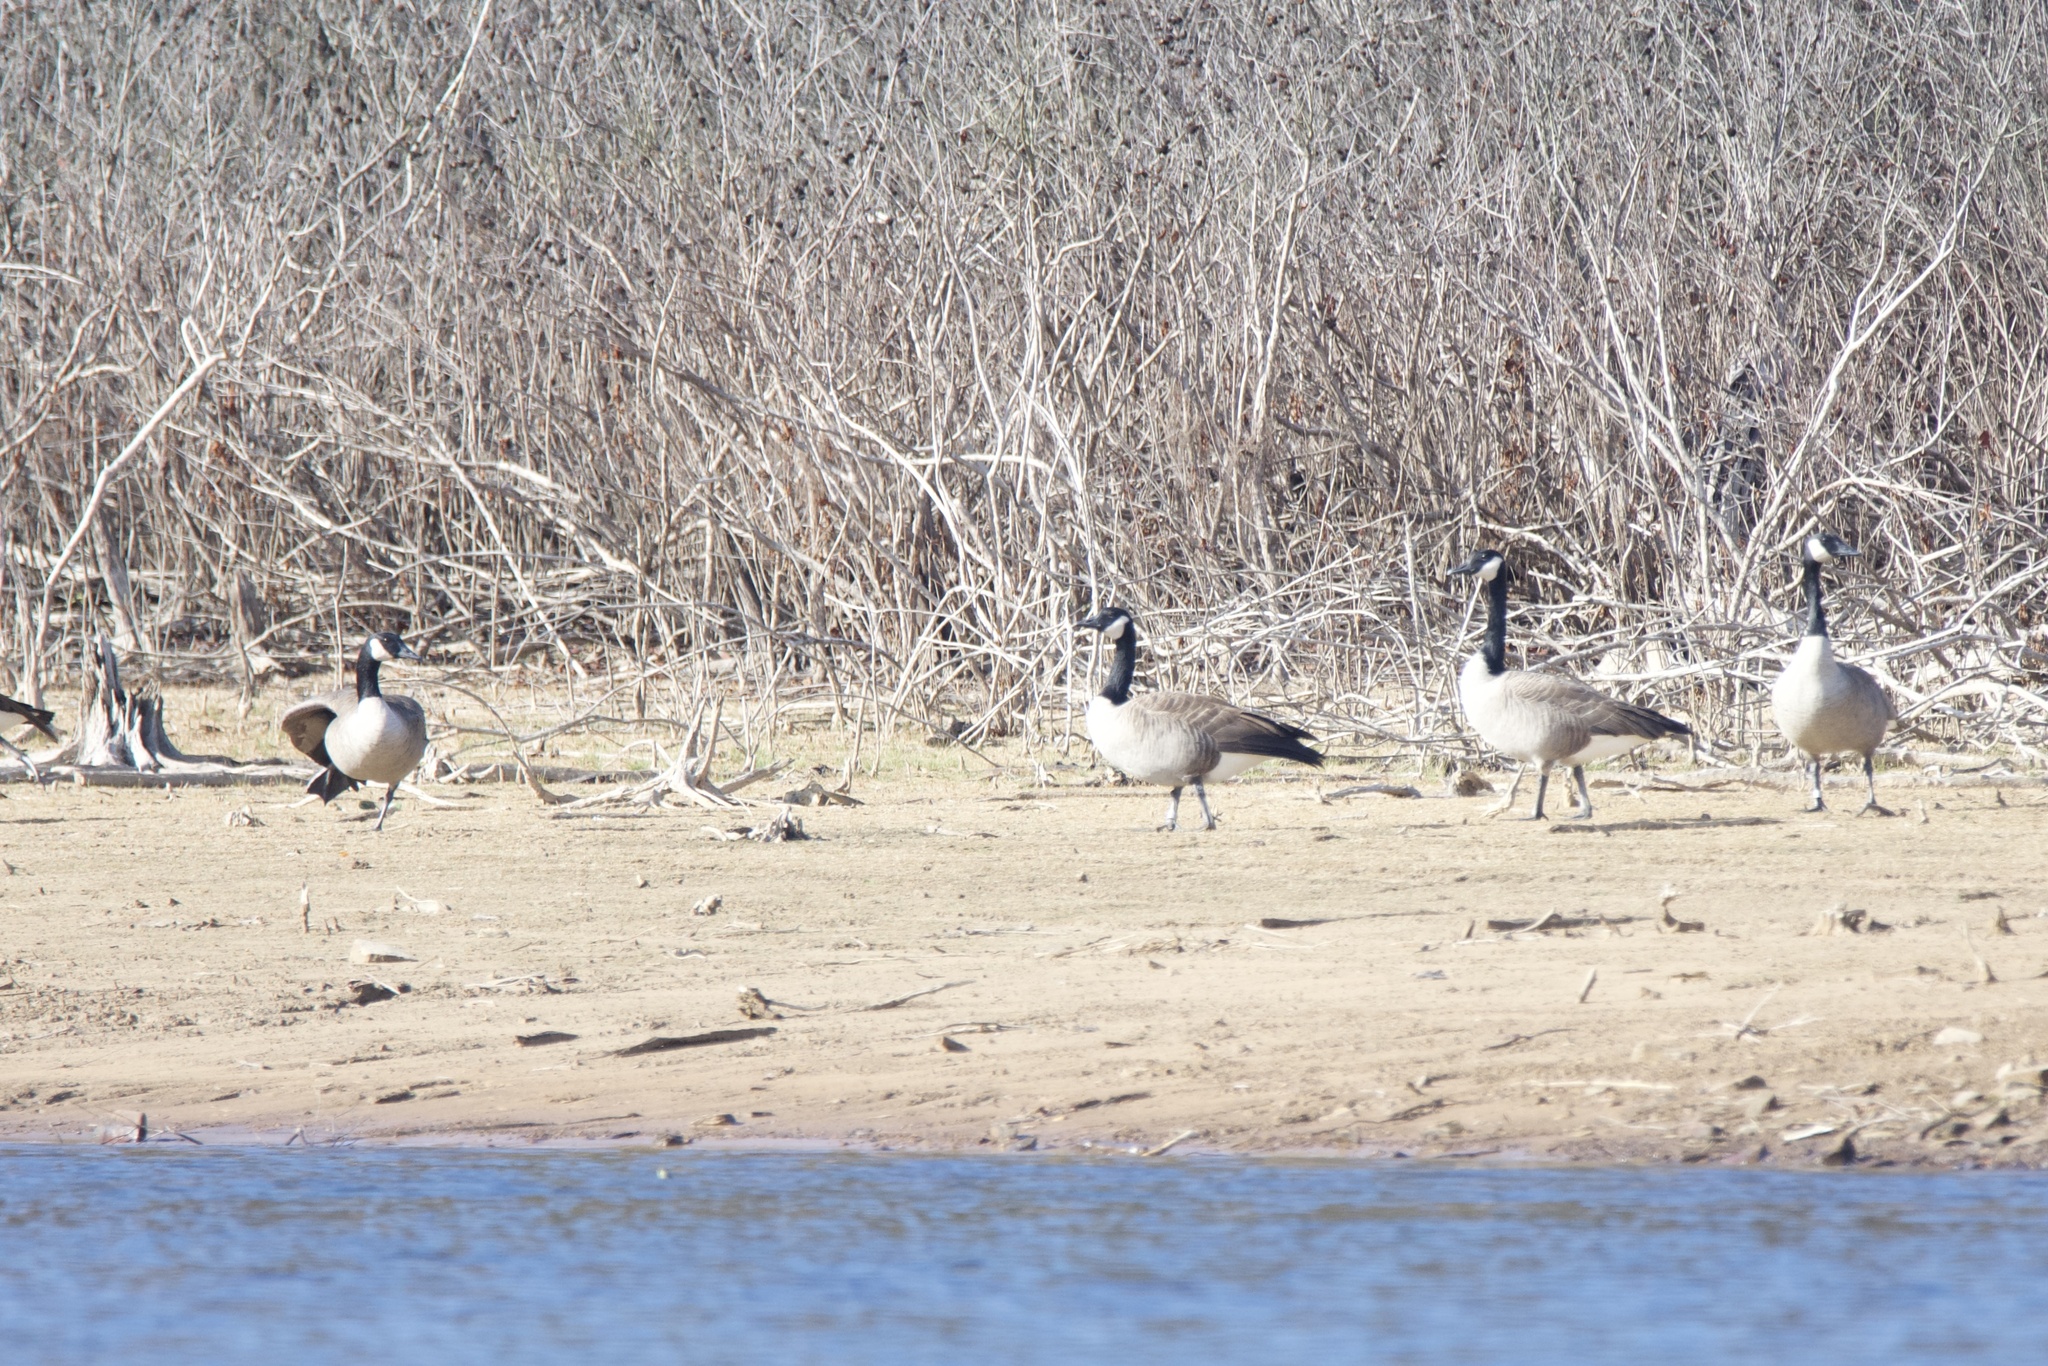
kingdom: Animalia
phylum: Chordata
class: Aves
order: Anseriformes
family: Anatidae
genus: Branta
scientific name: Branta canadensis
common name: Canada goose
